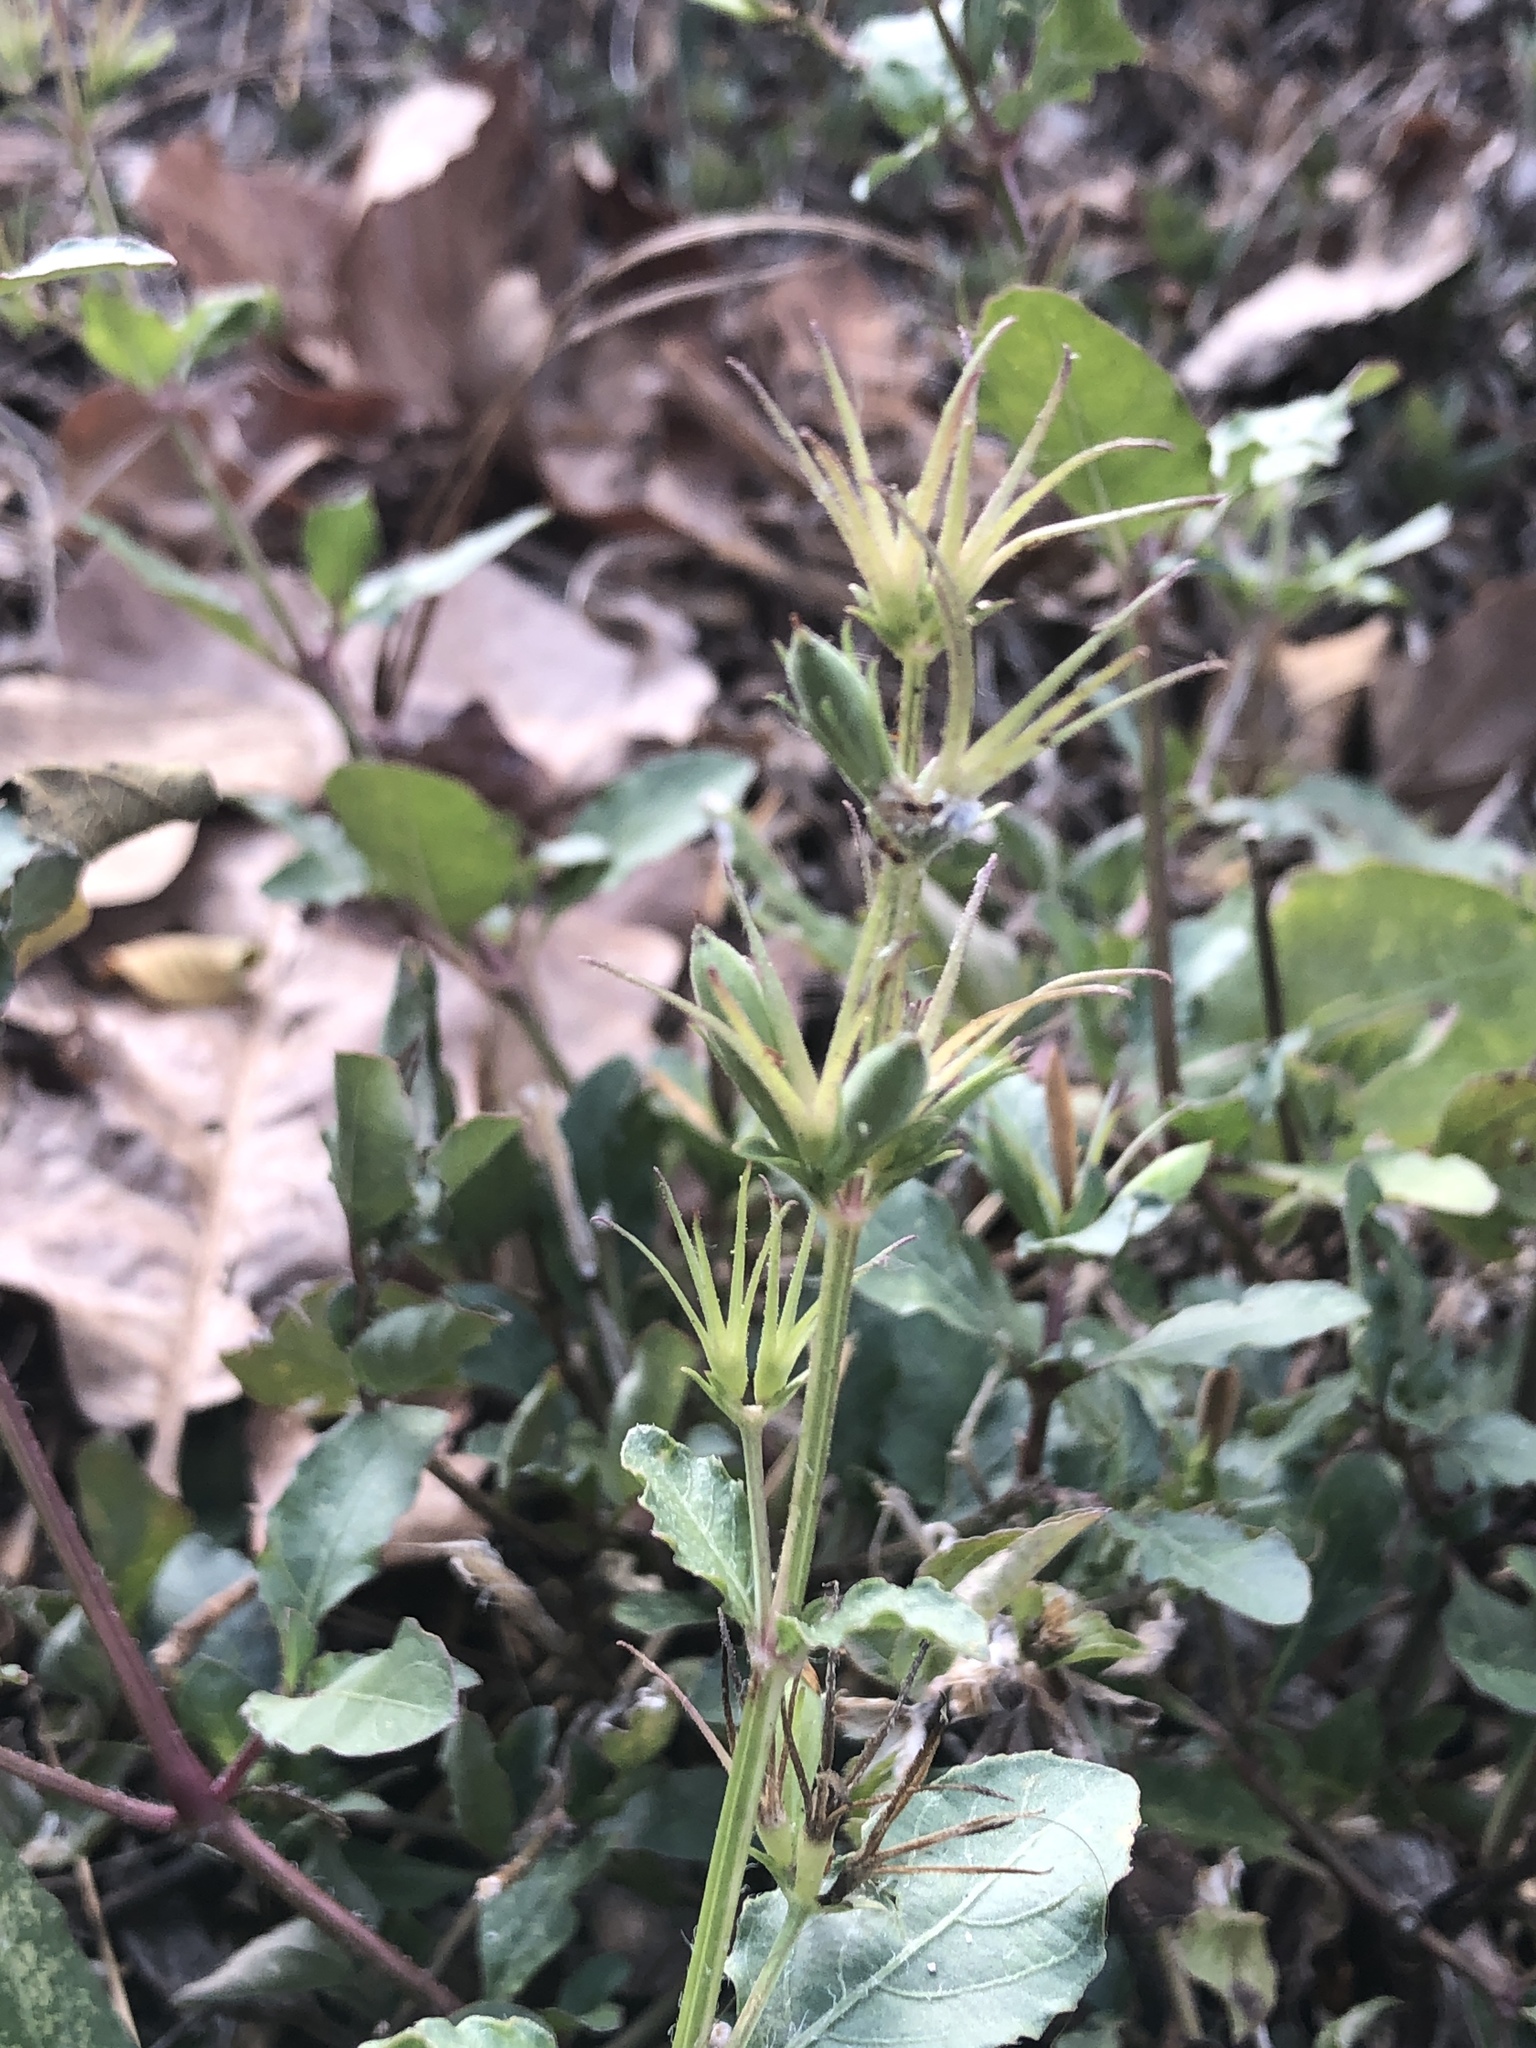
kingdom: Plantae
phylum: Tracheophyta
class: Magnoliopsida
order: Lamiales
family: Acanthaceae
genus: Ruellia
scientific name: Ruellia ciliatiflora
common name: Hairyflower wild petunia
